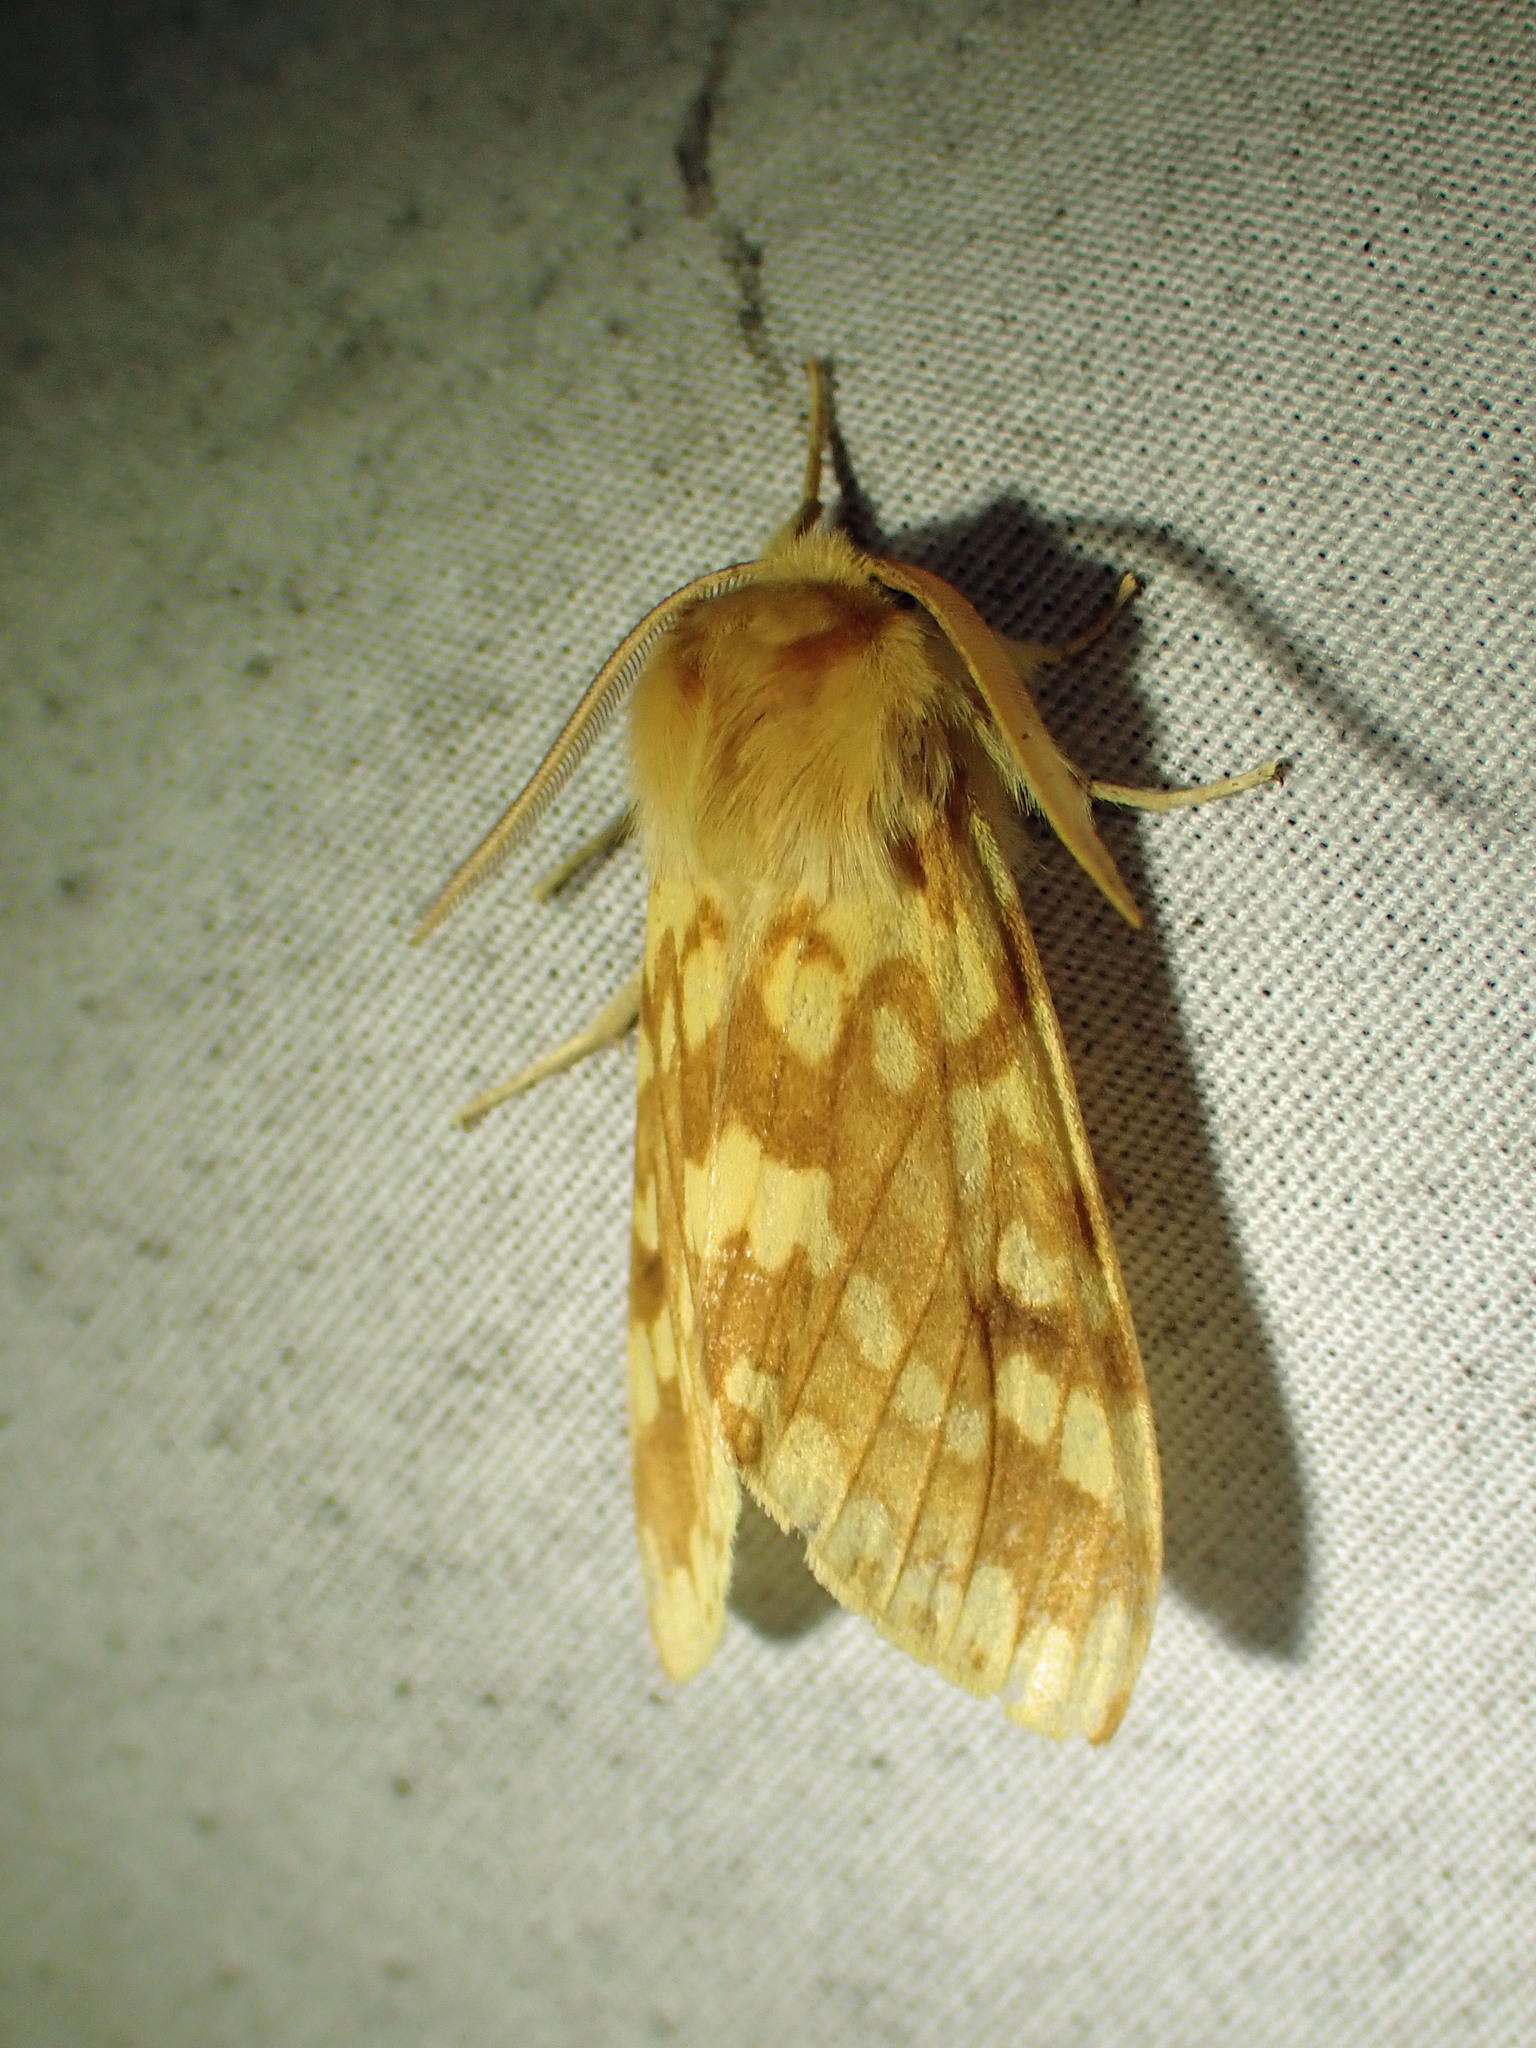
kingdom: Animalia
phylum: Arthropoda
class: Insecta
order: Lepidoptera
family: Erebidae
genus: Lophocampa
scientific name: Lophocampa maculata
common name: Spotted tussock moth
